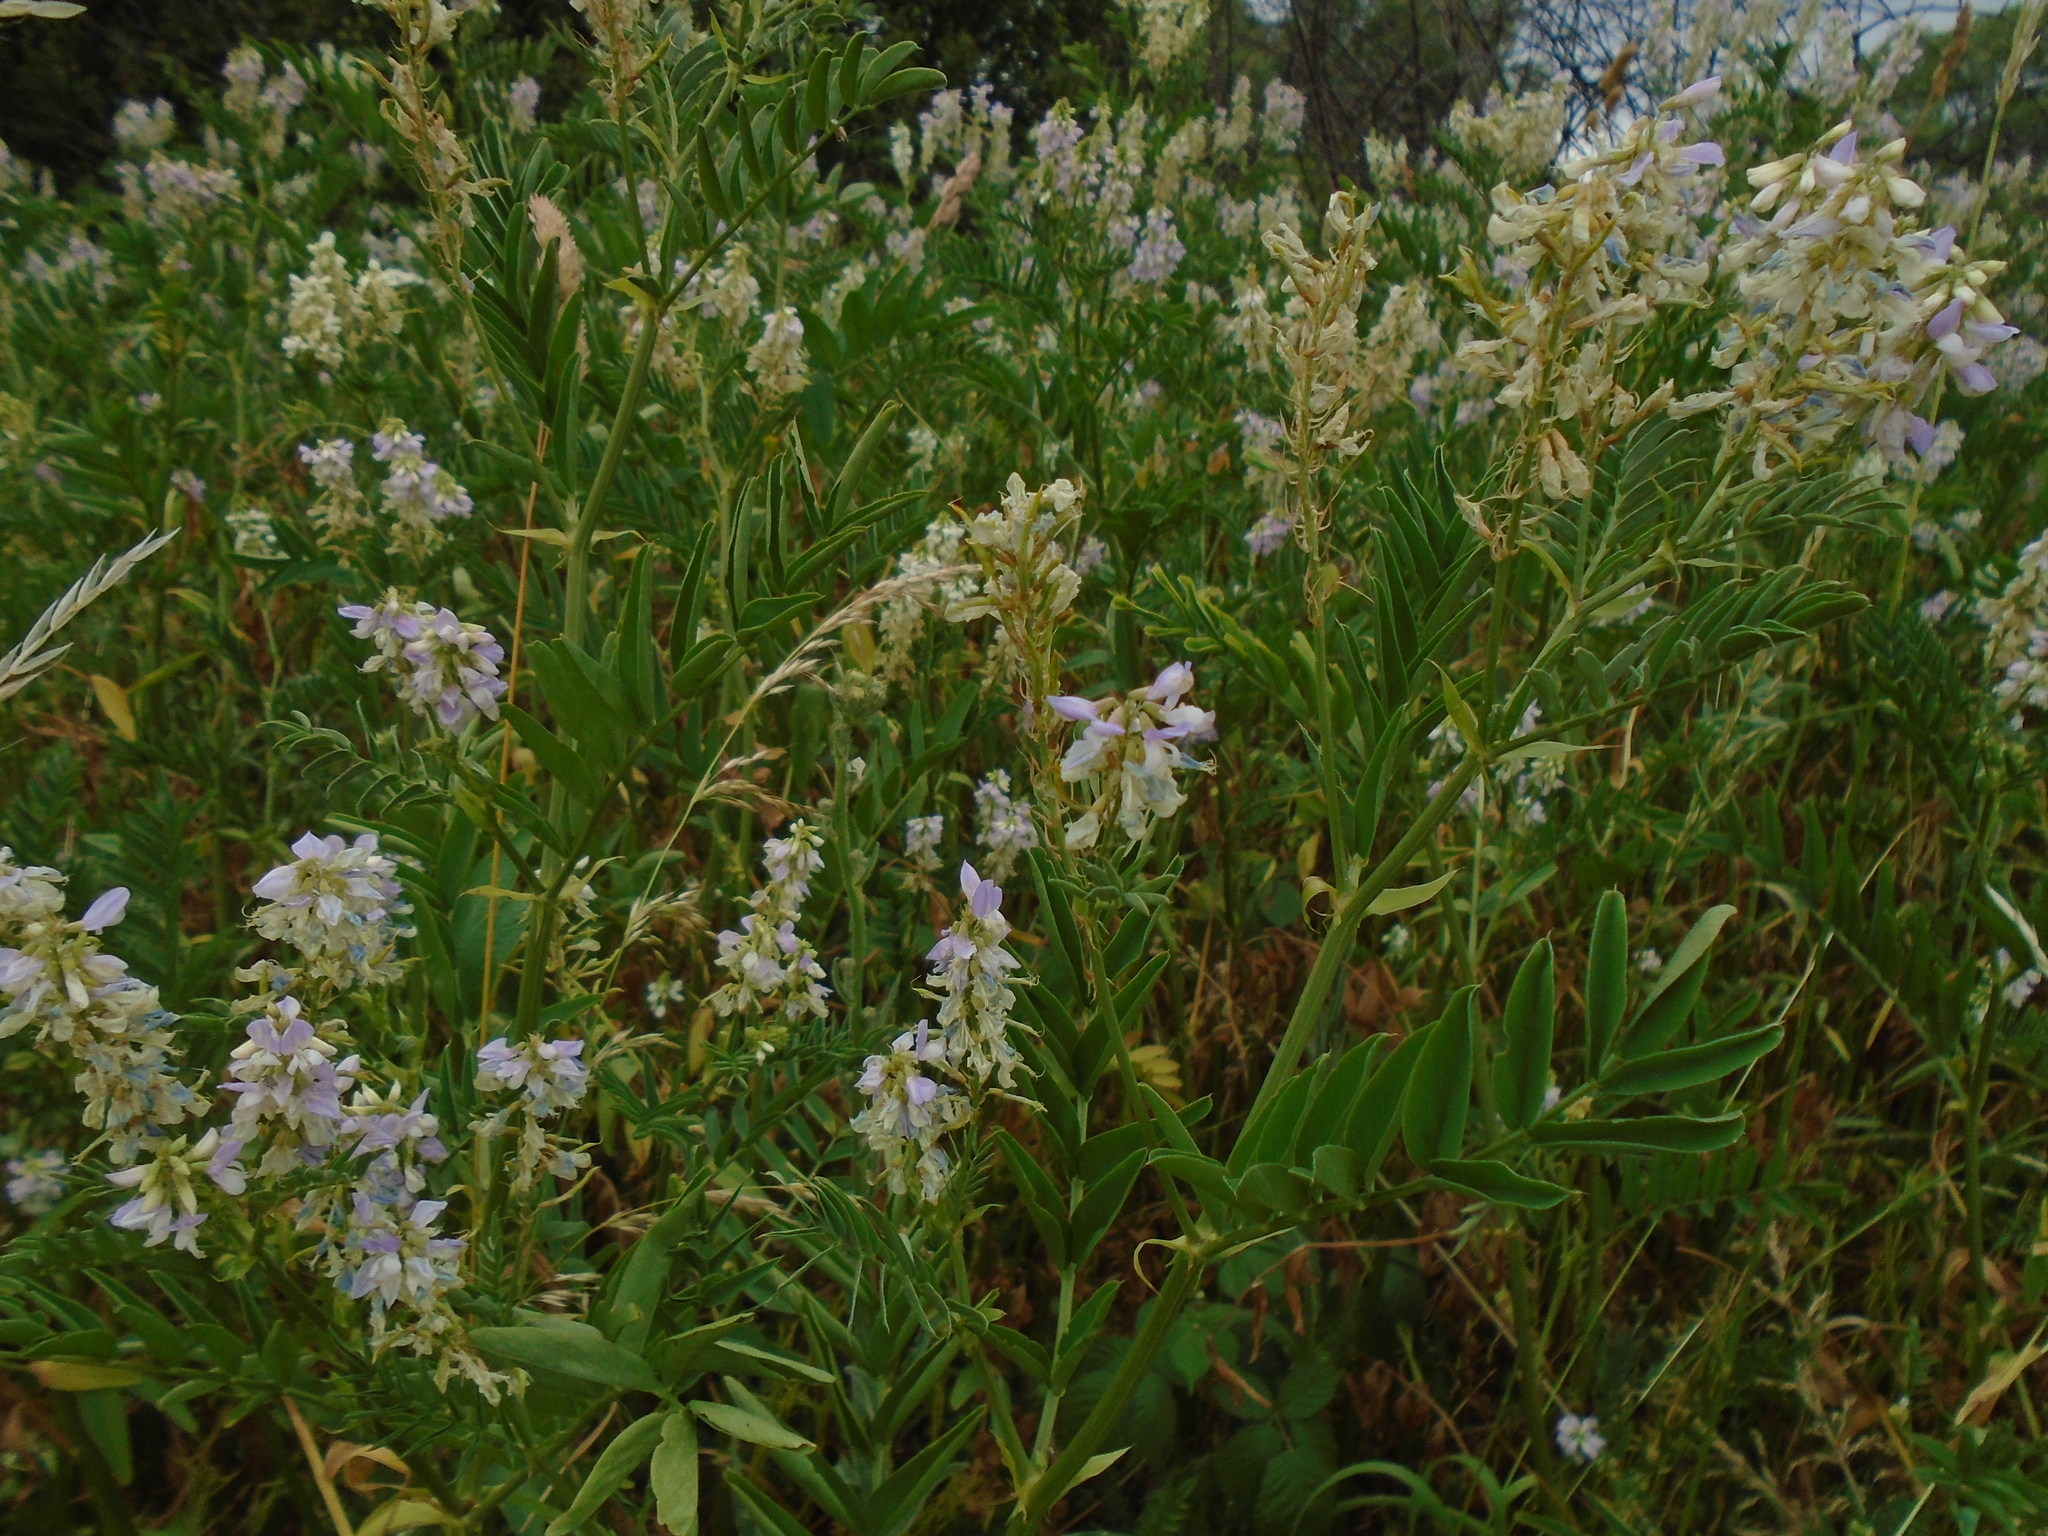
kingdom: Plantae
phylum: Tracheophyta
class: Magnoliopsida
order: Fabales
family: Fabaceae
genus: Galega
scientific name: Galega officinalis
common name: Goat's-rue
